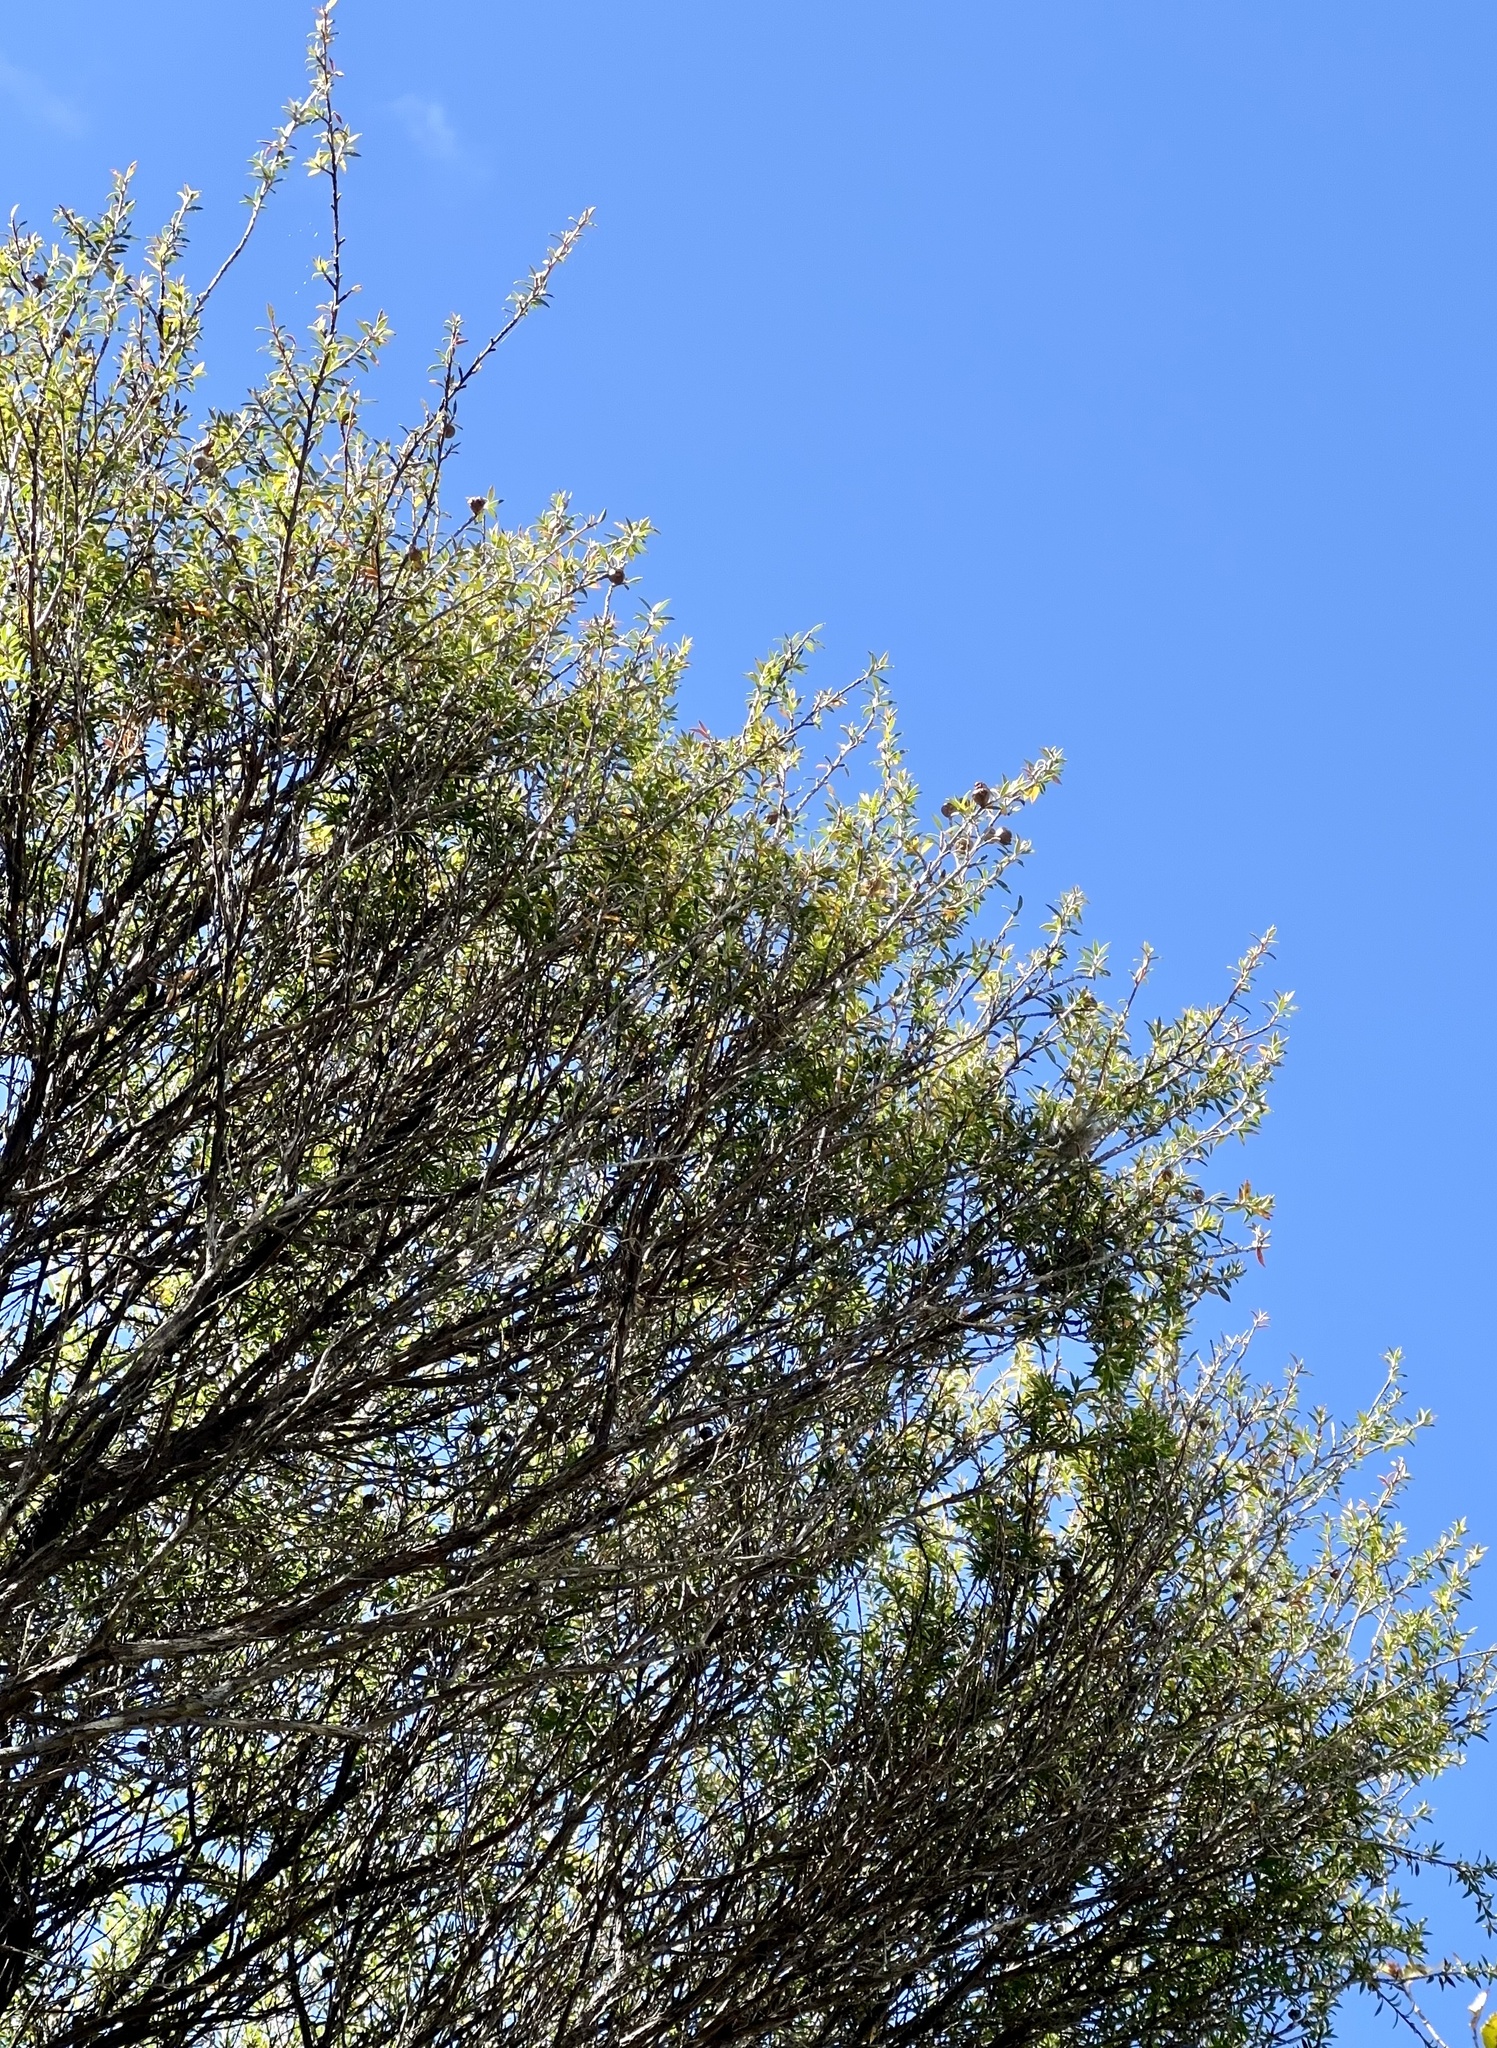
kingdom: Plantae
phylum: Tracheophyta
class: Magnoliopsida
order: Myrtales
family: Myrtaceae
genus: Leptospermum
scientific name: Leptospermum scoparium
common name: Broom tea-tree
